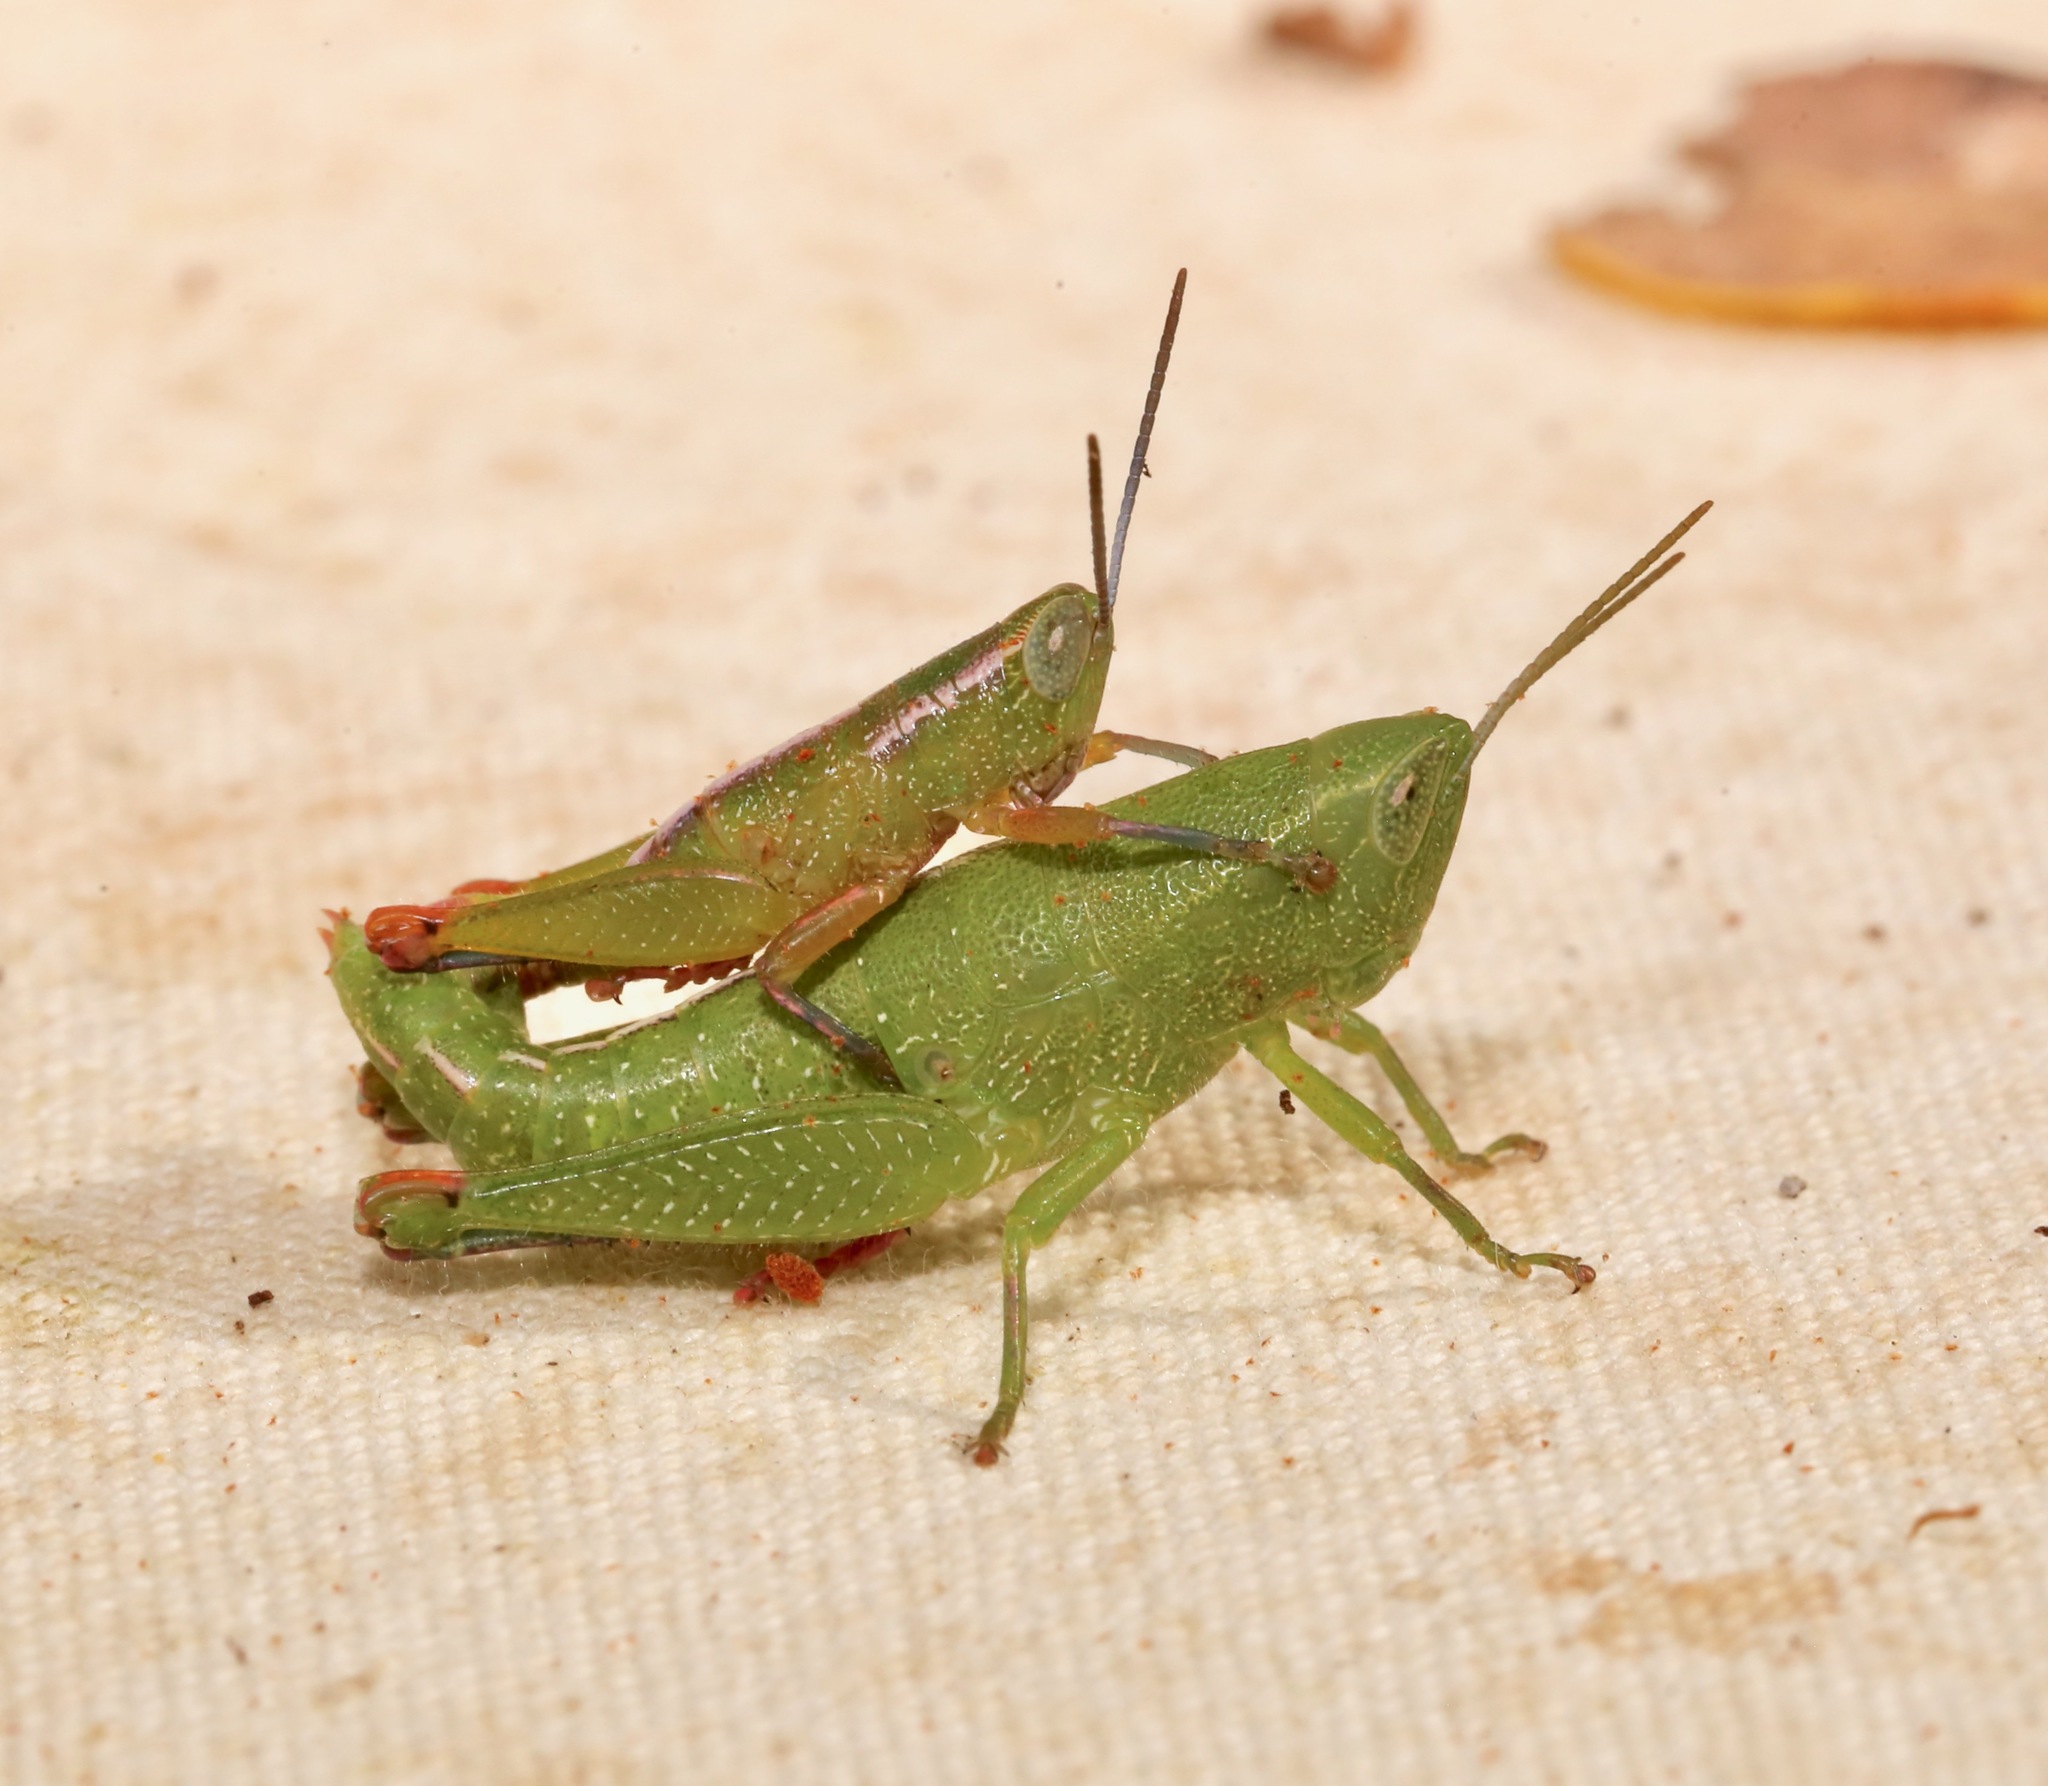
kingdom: Animalia
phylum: Arthropoda
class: Insecta
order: Orthoptera
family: Acrididae
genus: Floritettix
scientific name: Floritettix aptera
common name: Wingless florida locust
